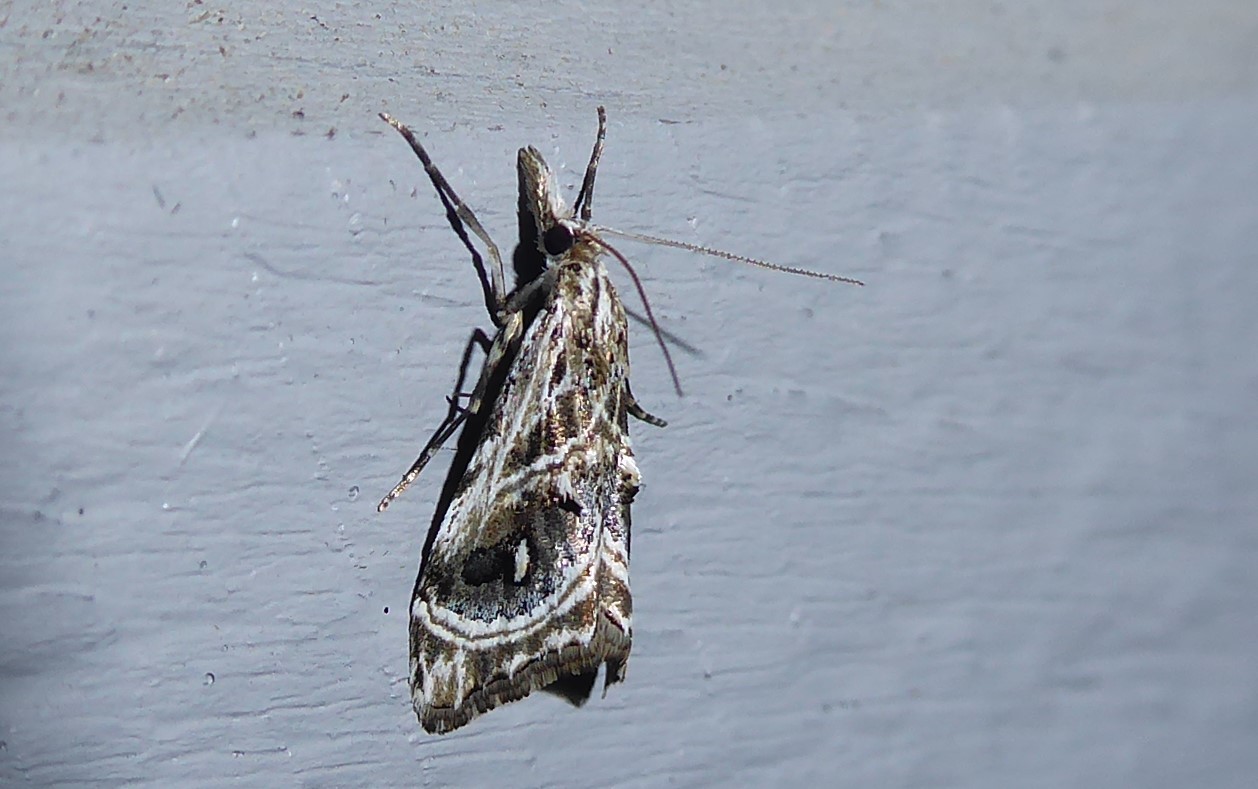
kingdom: Animalia
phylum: Arthropoda
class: Insecta
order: Lepidoptera
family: Crambidae
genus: Gadira
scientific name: Gadira acerella
